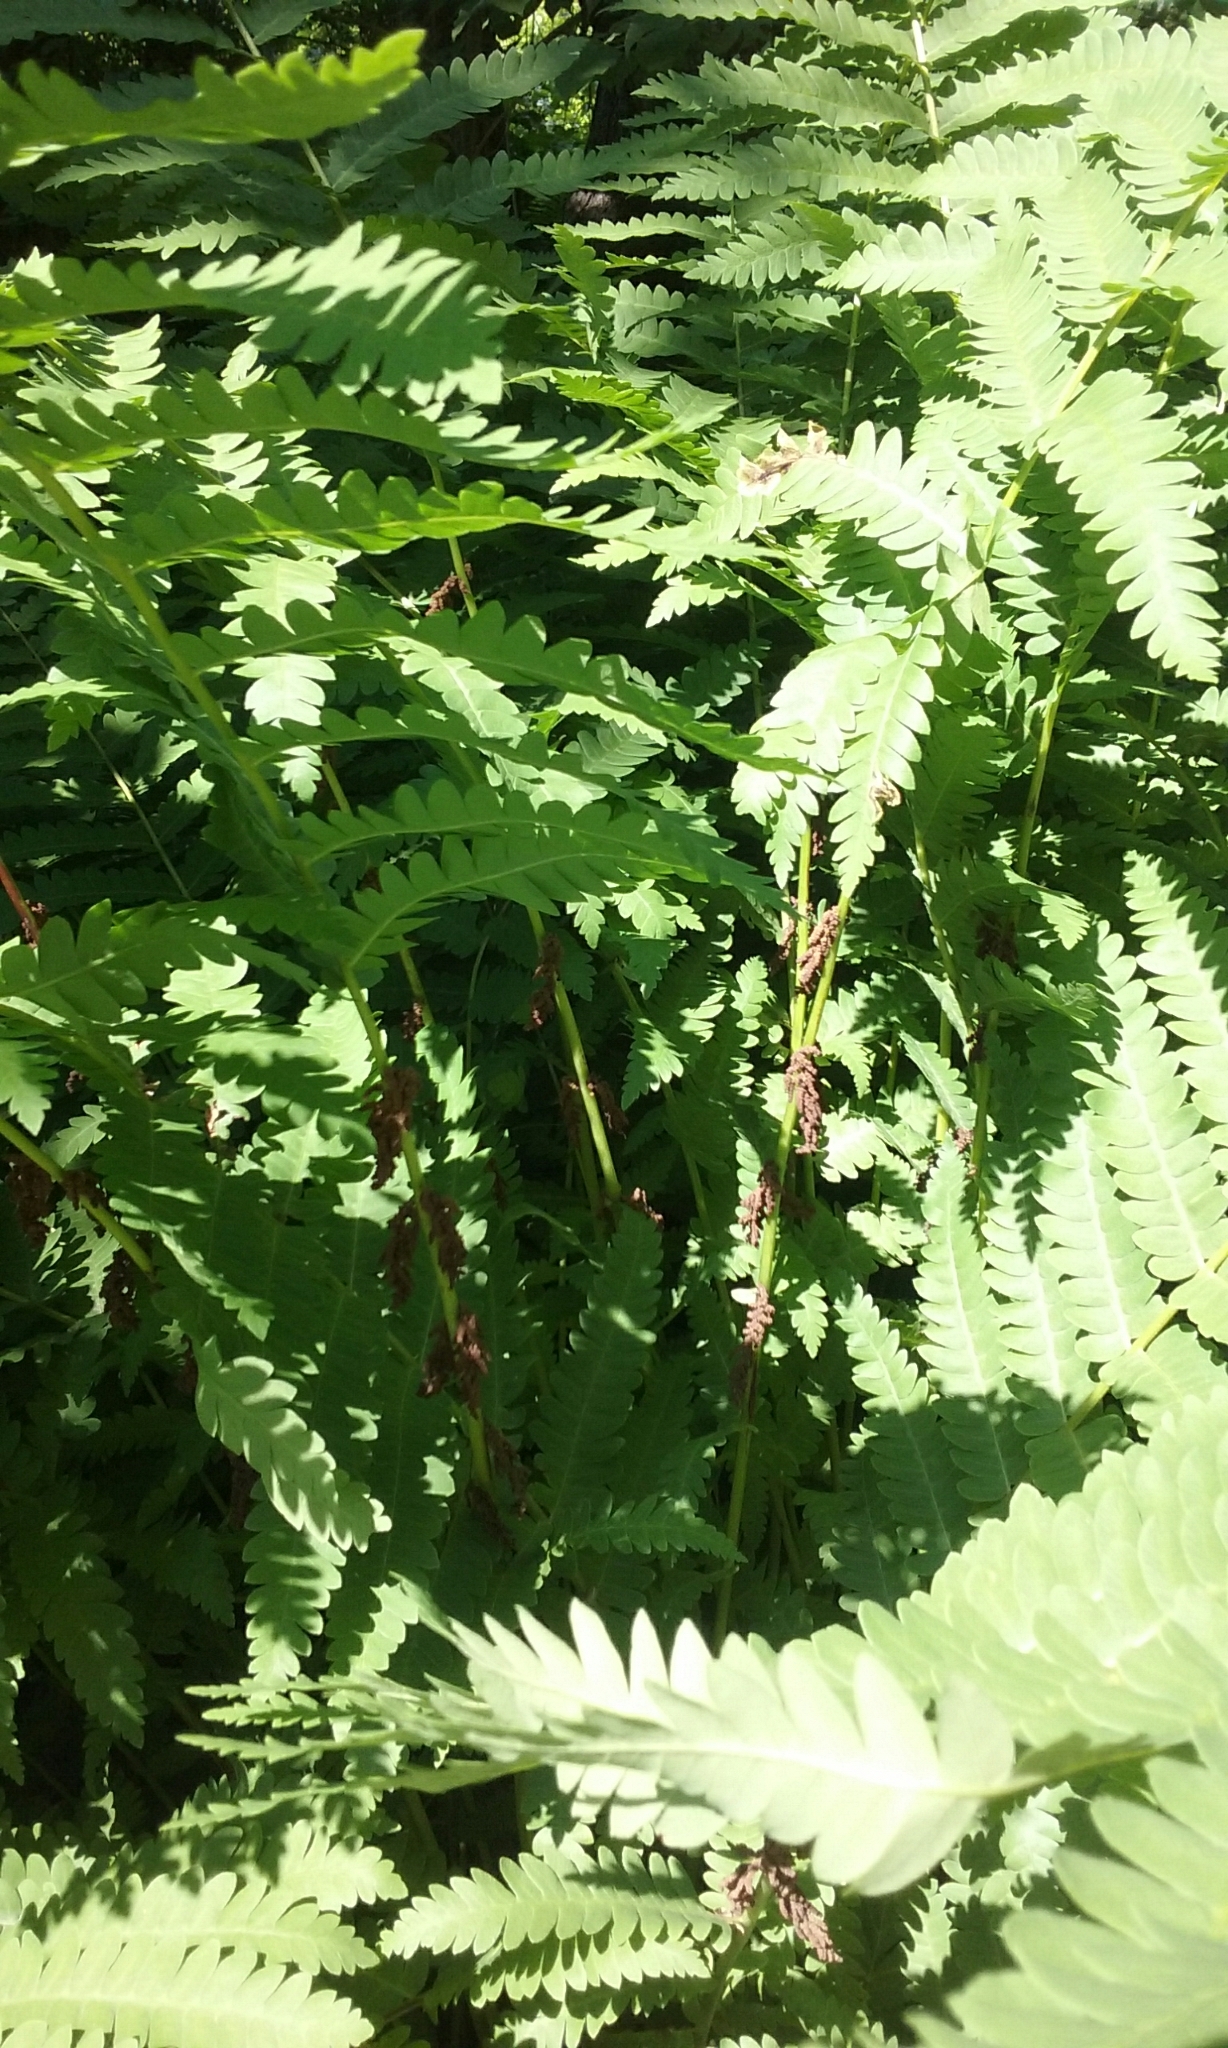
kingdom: Plantae
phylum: Tracheophyta
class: Polypodiopsida
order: Osmundales
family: Osmundaceae
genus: Claytosmunda
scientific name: Claytosmunda claytoniana
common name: Clayton's fern
